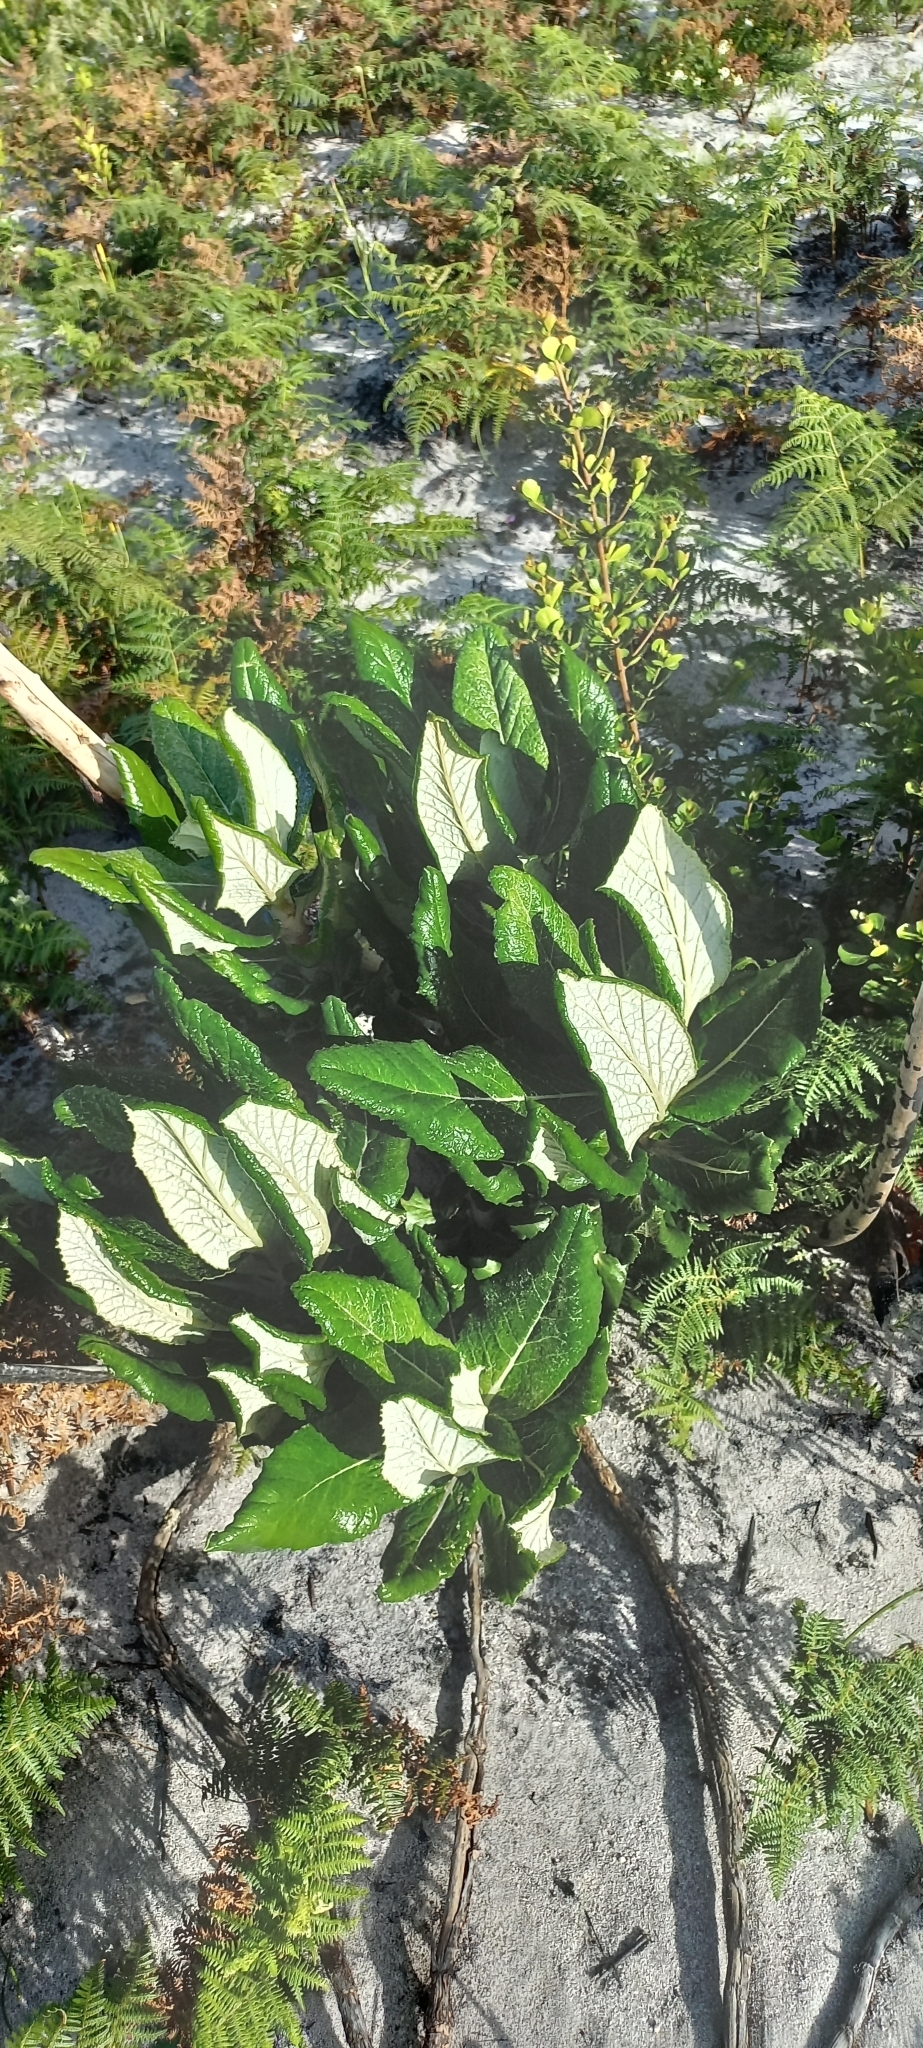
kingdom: Plantae
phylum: Tracheophyta
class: Magnoliopsida
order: Apiales
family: Apiaceae
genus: Hermas
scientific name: Hermas villosa
